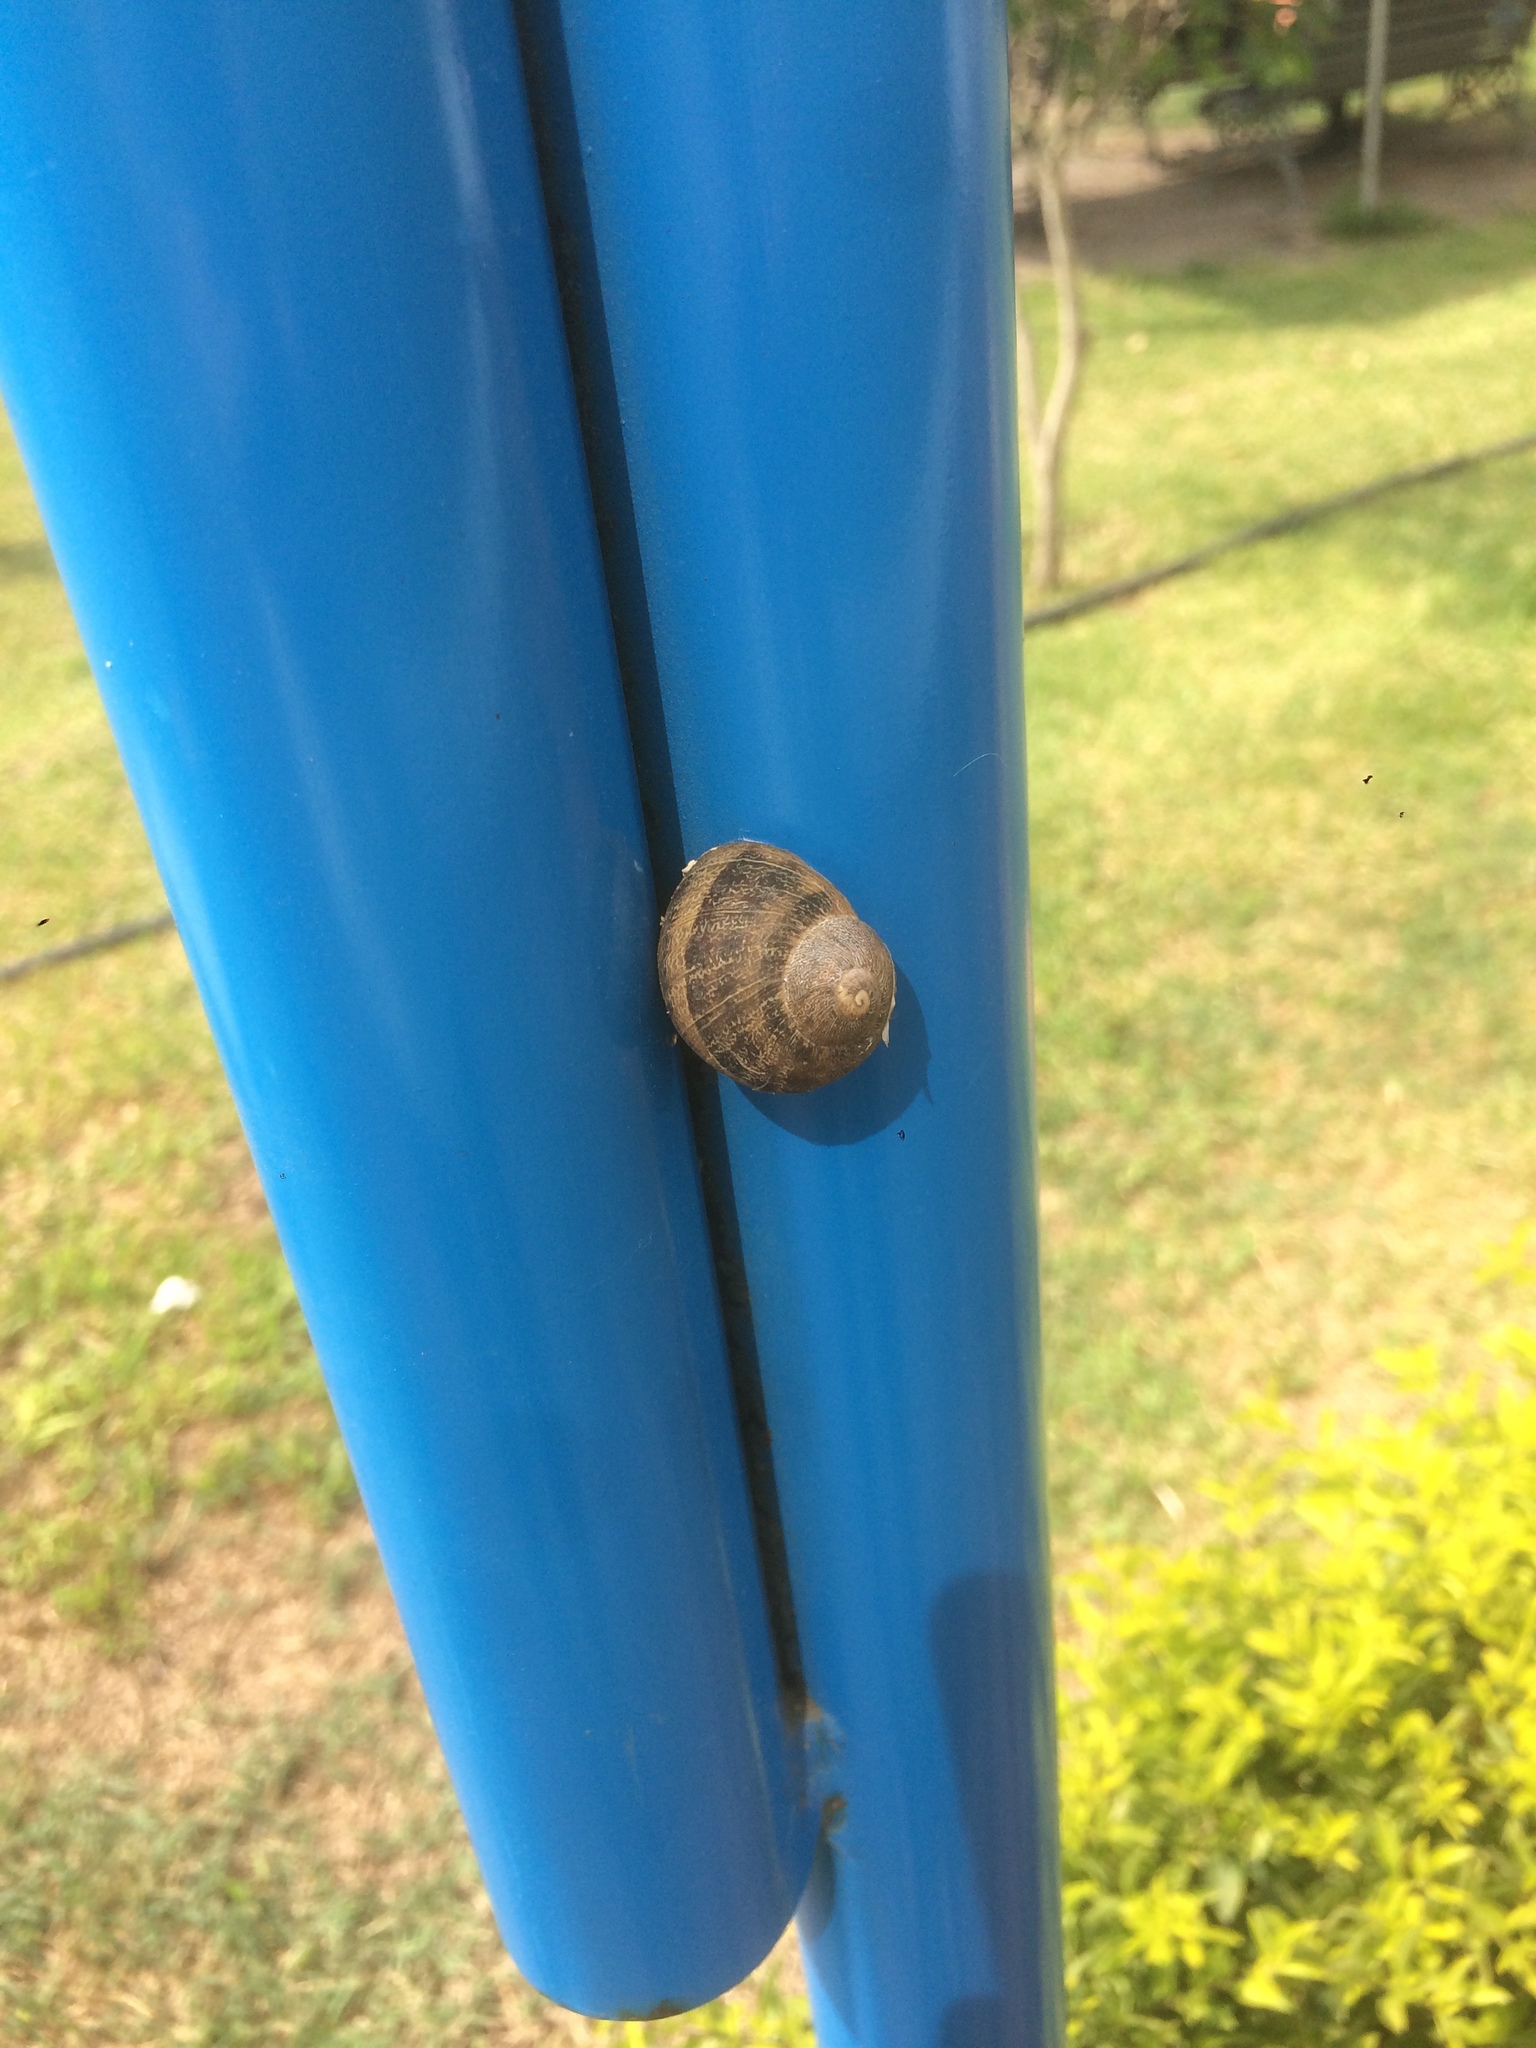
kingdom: Animalia
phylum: Mollusca
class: Gastropoda
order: Stylommatophora
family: Helicidae
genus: Cornu
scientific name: Cornu aspersum
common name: Brown garden snail
